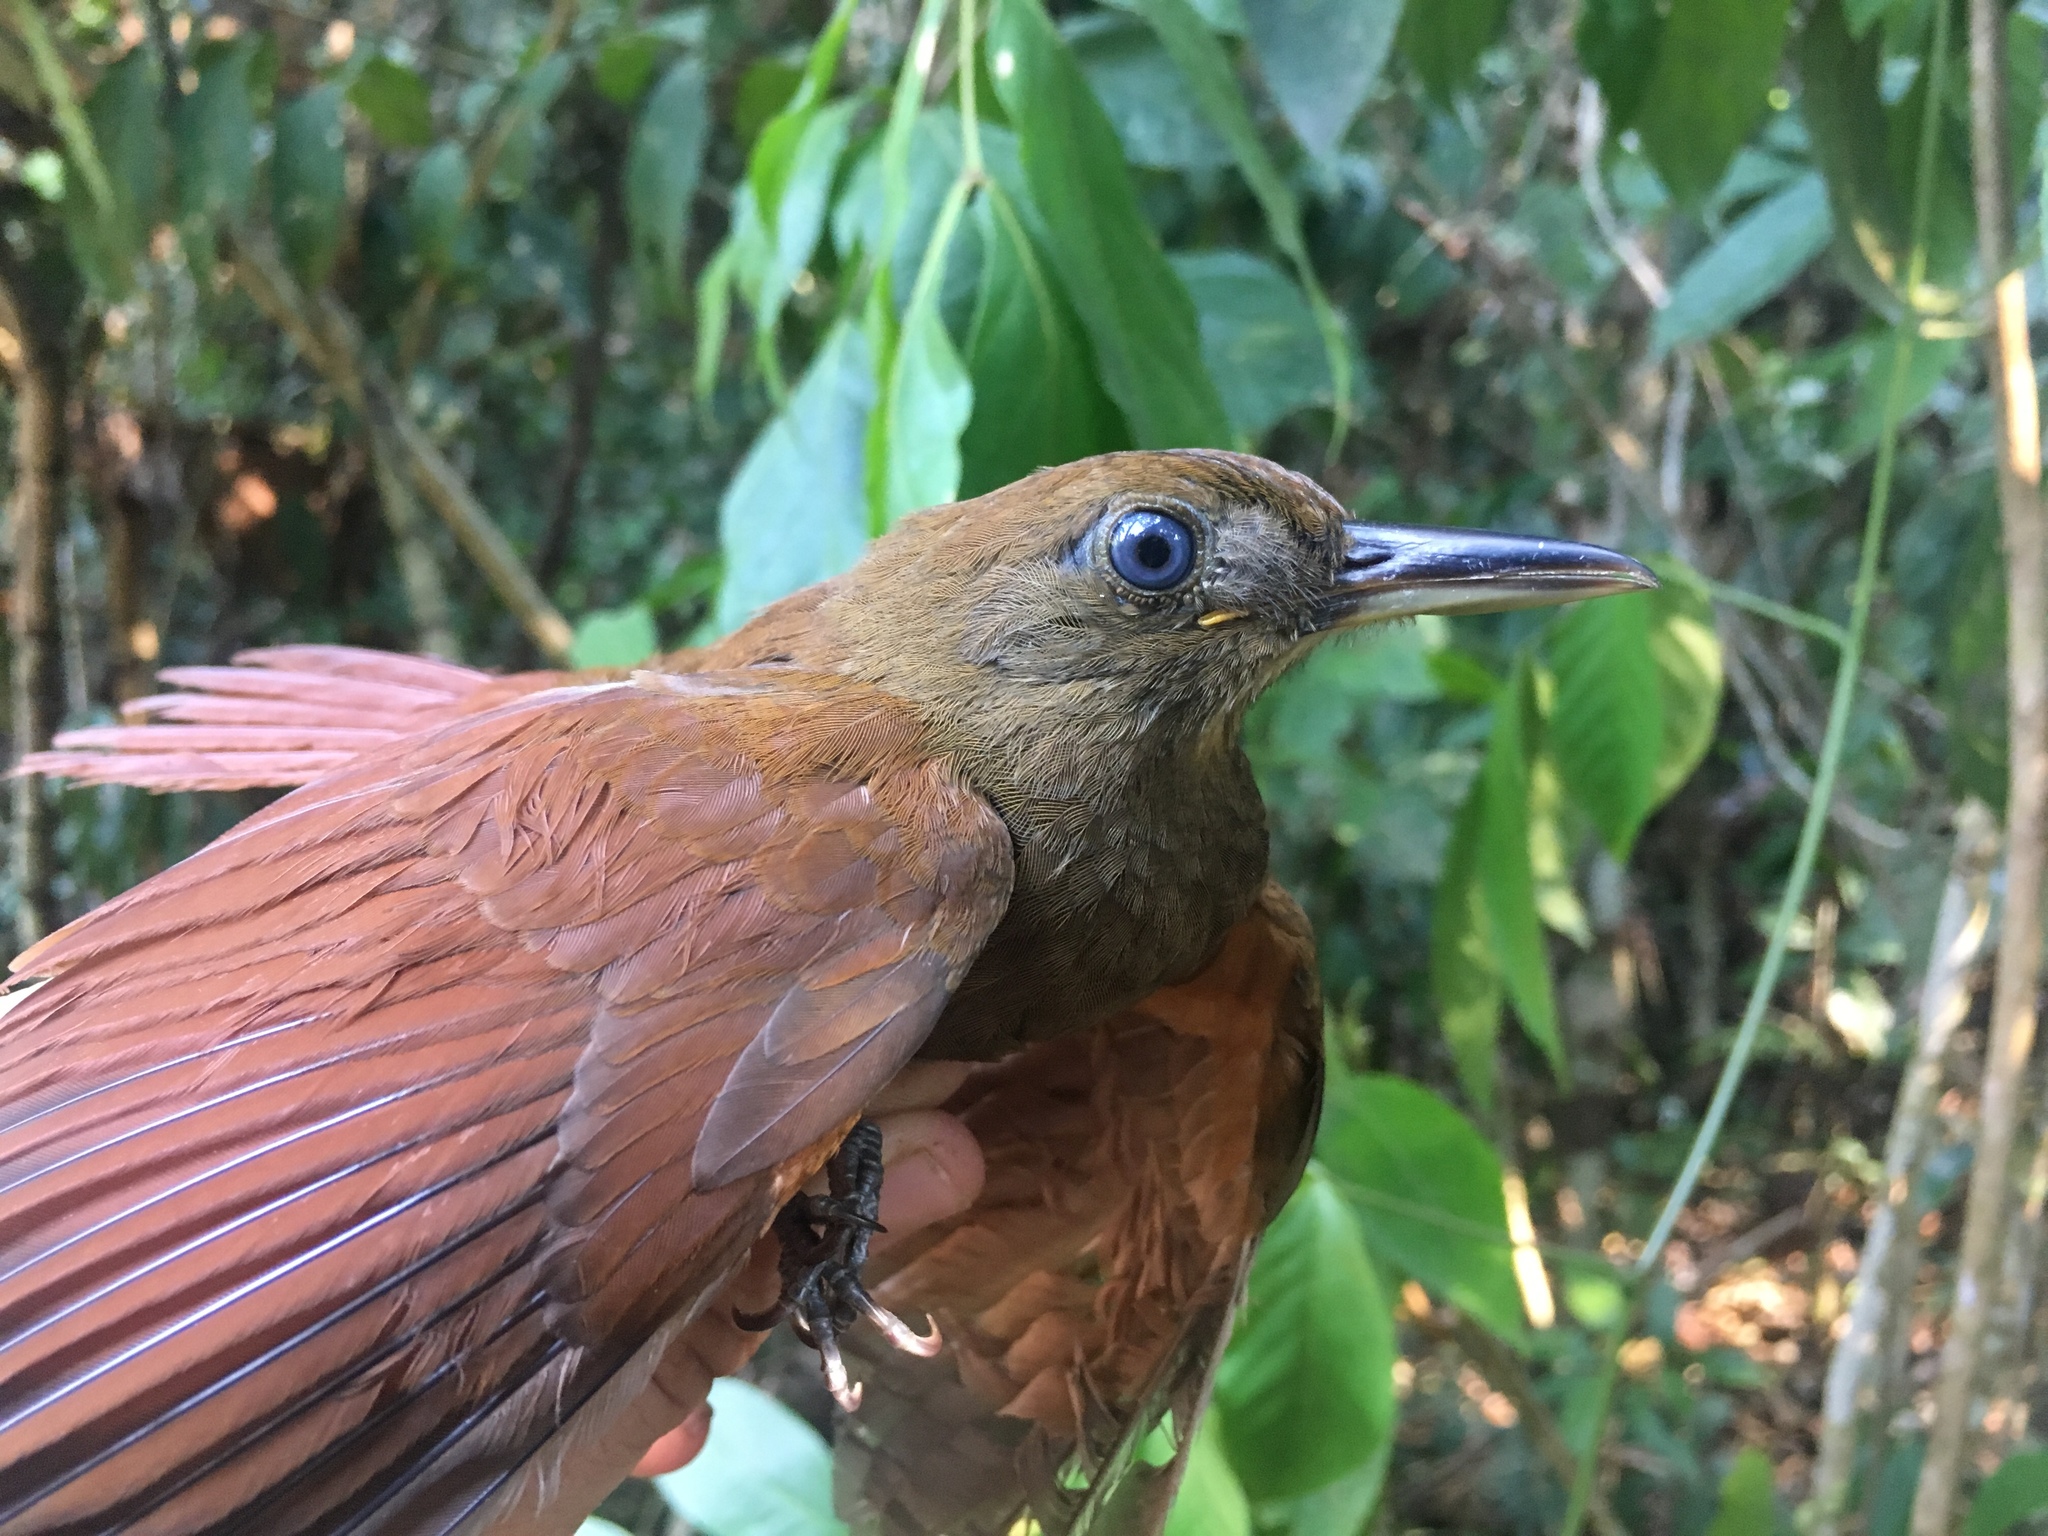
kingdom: Animalia
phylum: Chordata
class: Aves
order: Passeriformes
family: Furnariidae
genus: Dendrocincla
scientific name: Dendrocincla merula
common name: White-chinned woodcreeper
